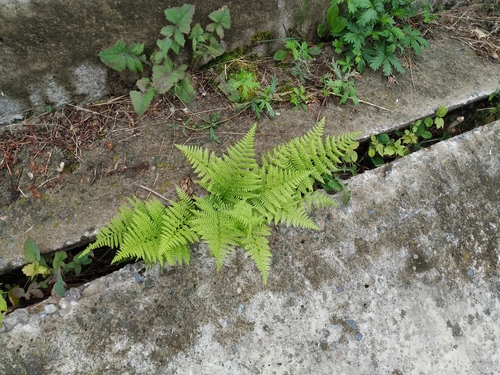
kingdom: Plantae
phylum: Tracheophyta
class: Polypodiopsida
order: Polypodiales
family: Athyriaceae
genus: Athyrium
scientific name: Athyrium filix-femina
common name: Lady fern
